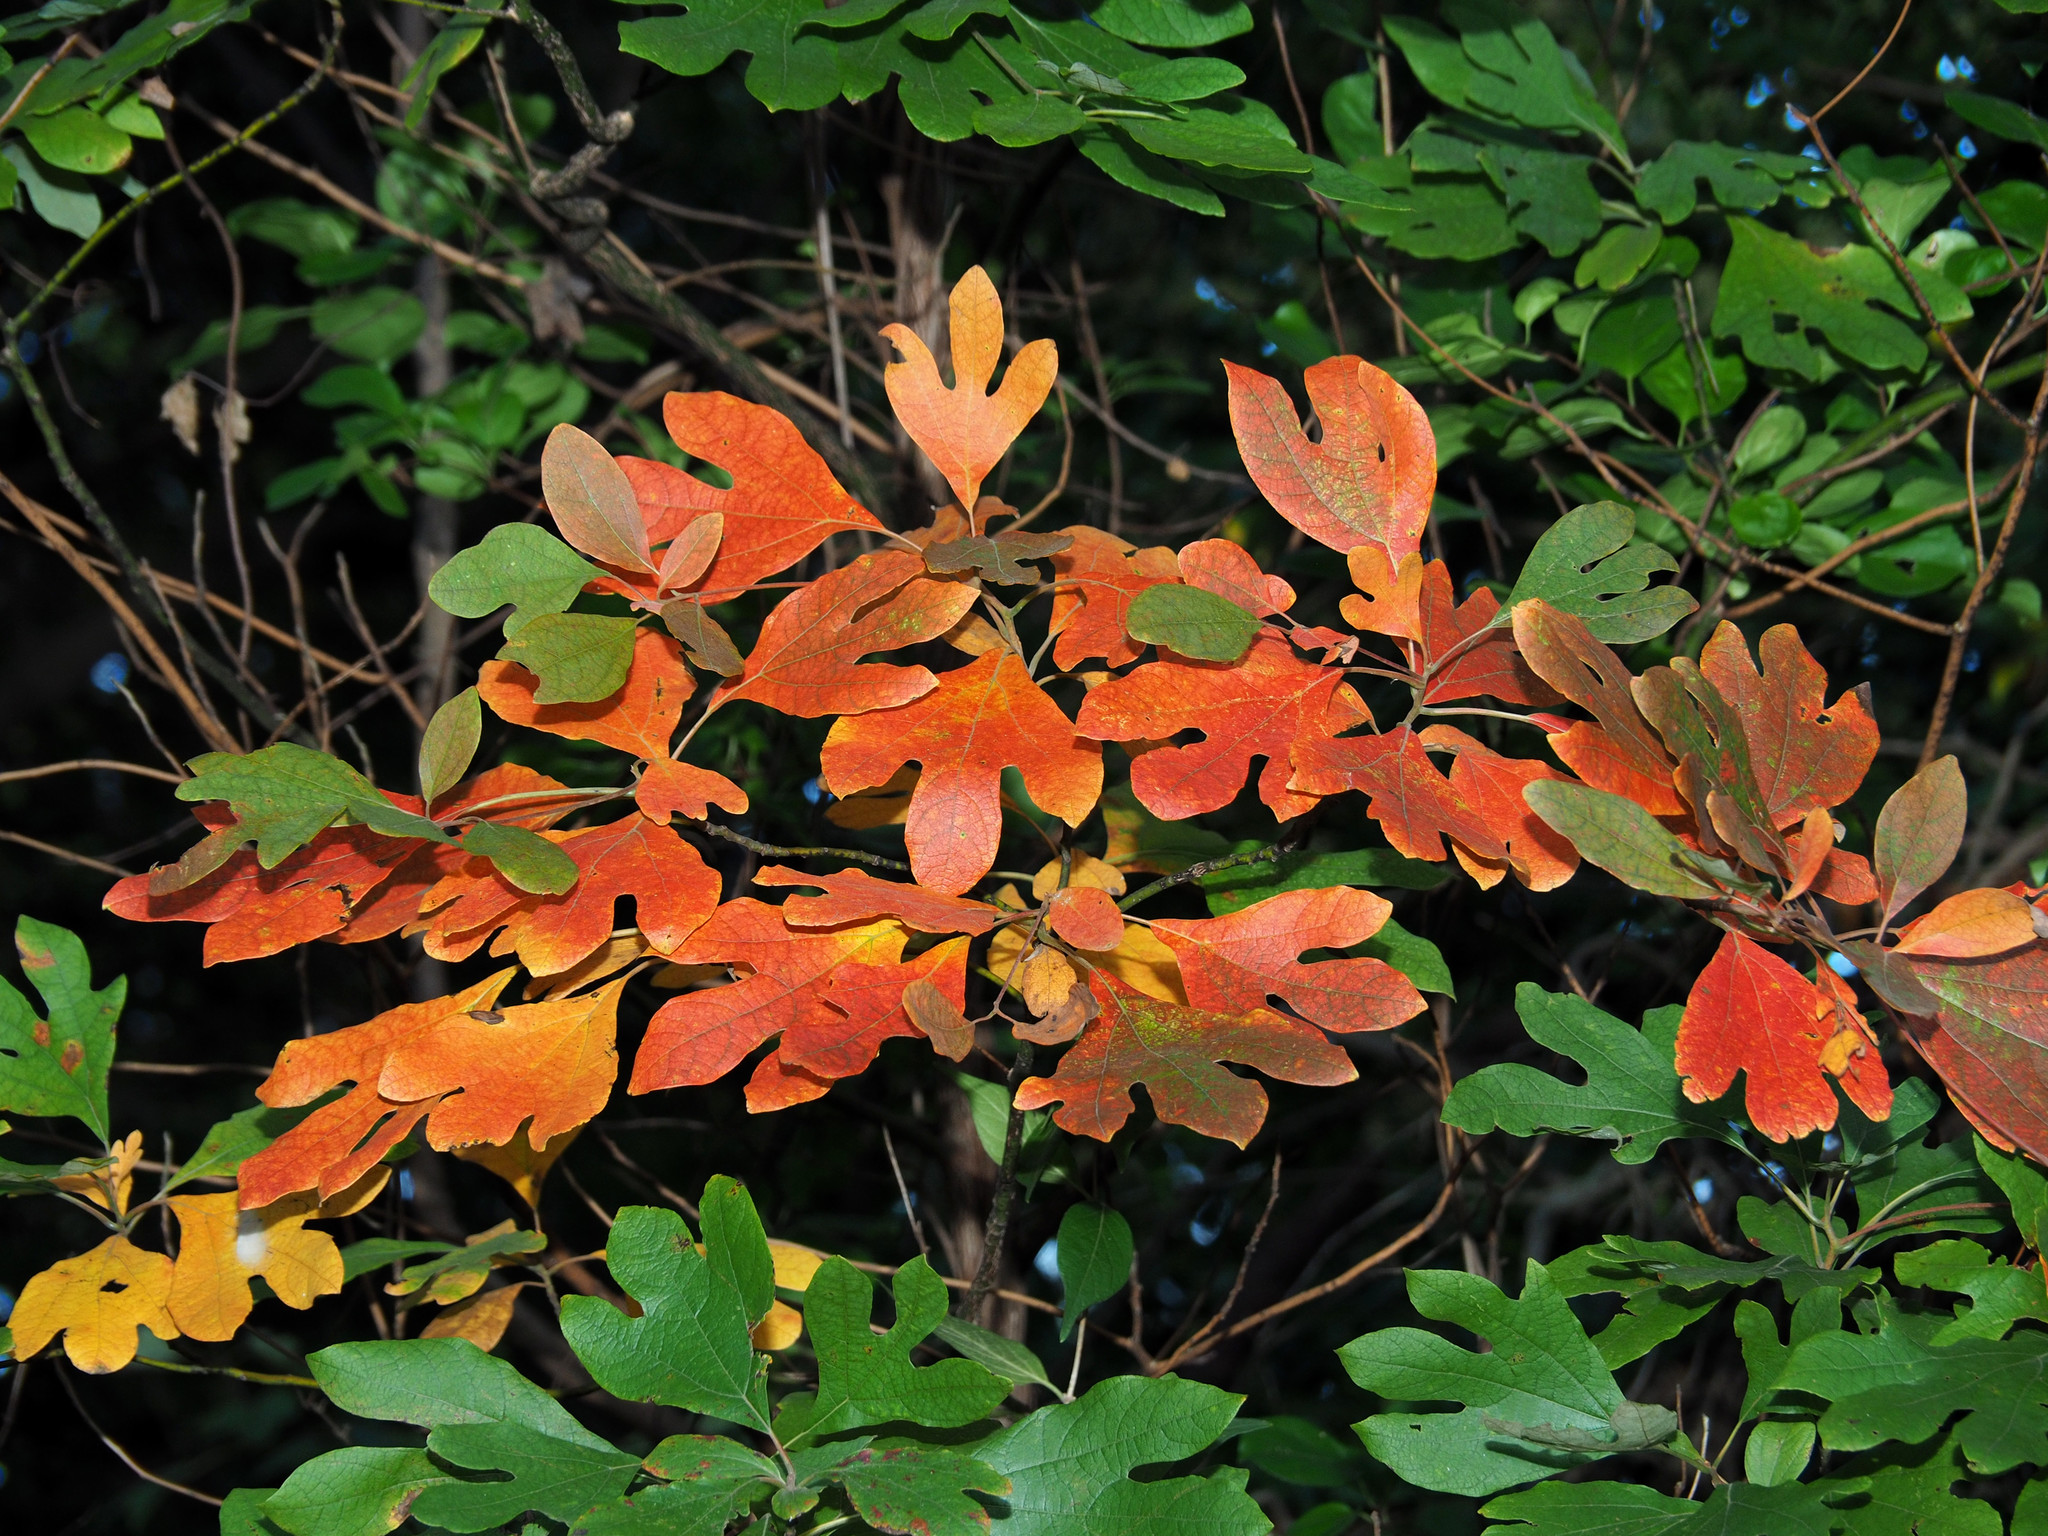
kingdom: Plantae
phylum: Tracheophyta
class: Magnoliopsida
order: Laurales
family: Lauraceae
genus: Sassafras
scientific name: Sassafras albidum
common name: Sassafras
